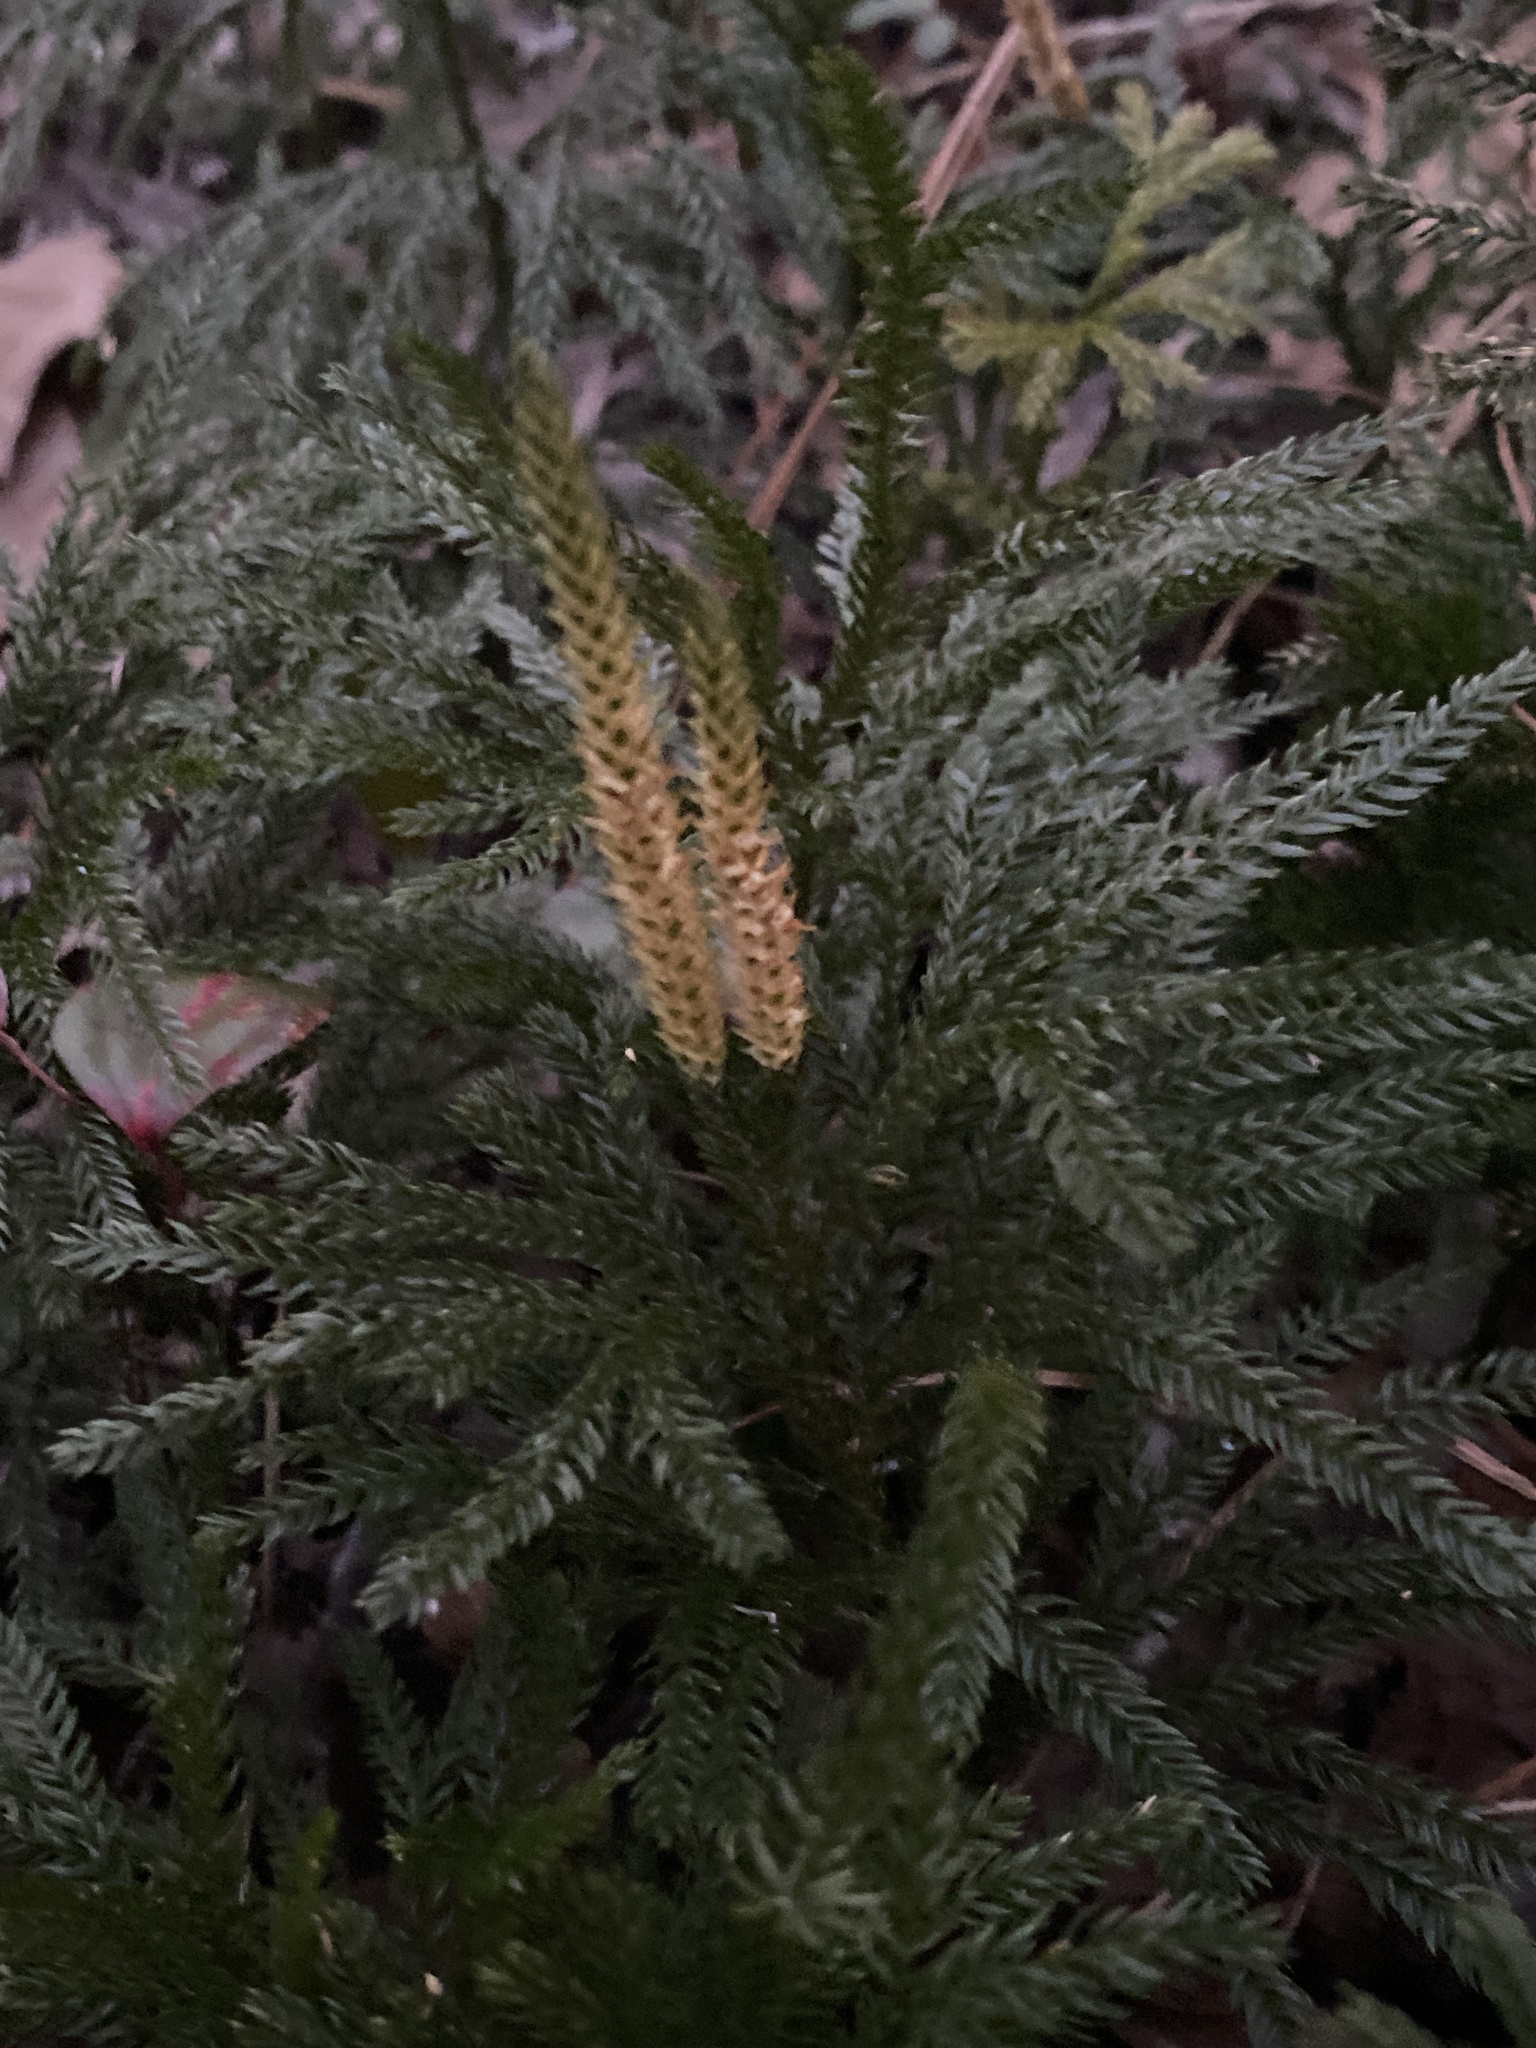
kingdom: Plantae
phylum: Tracheophyta
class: Lycopodiopsida
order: Lycopodiales
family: Lycopodiaceae
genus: Dendrolycopodium
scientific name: Dendrolycopodium obscurum
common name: Common ground-pine
